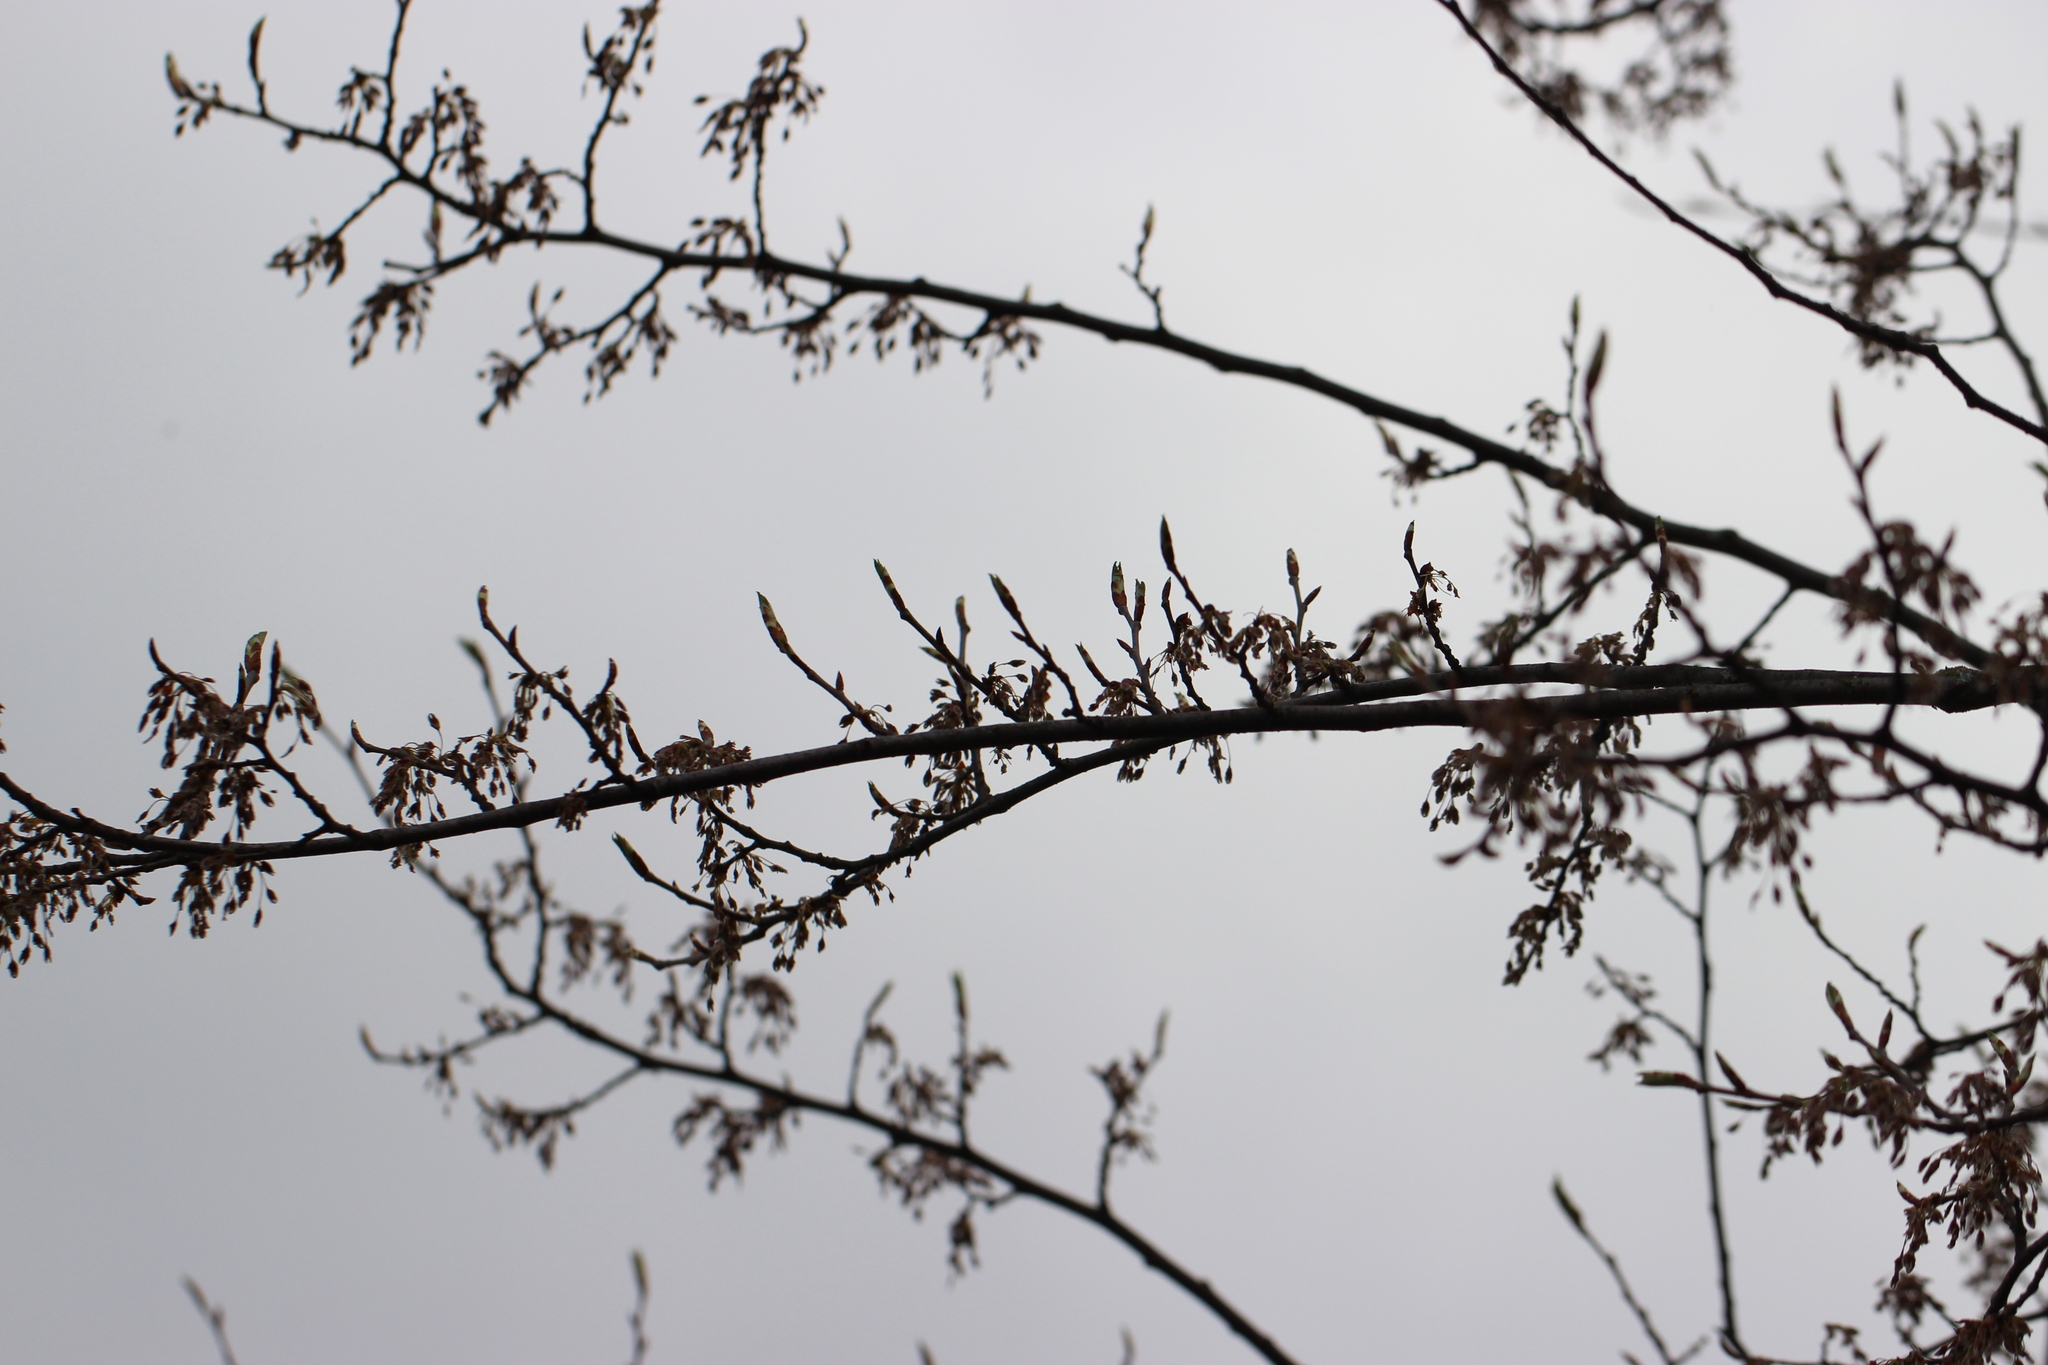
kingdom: Plantae
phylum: Tracheophyta
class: Magnoliopsida
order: Rosales
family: Ulmaceae
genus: Ulmus
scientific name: Ulmus laevis
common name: European white-elm
